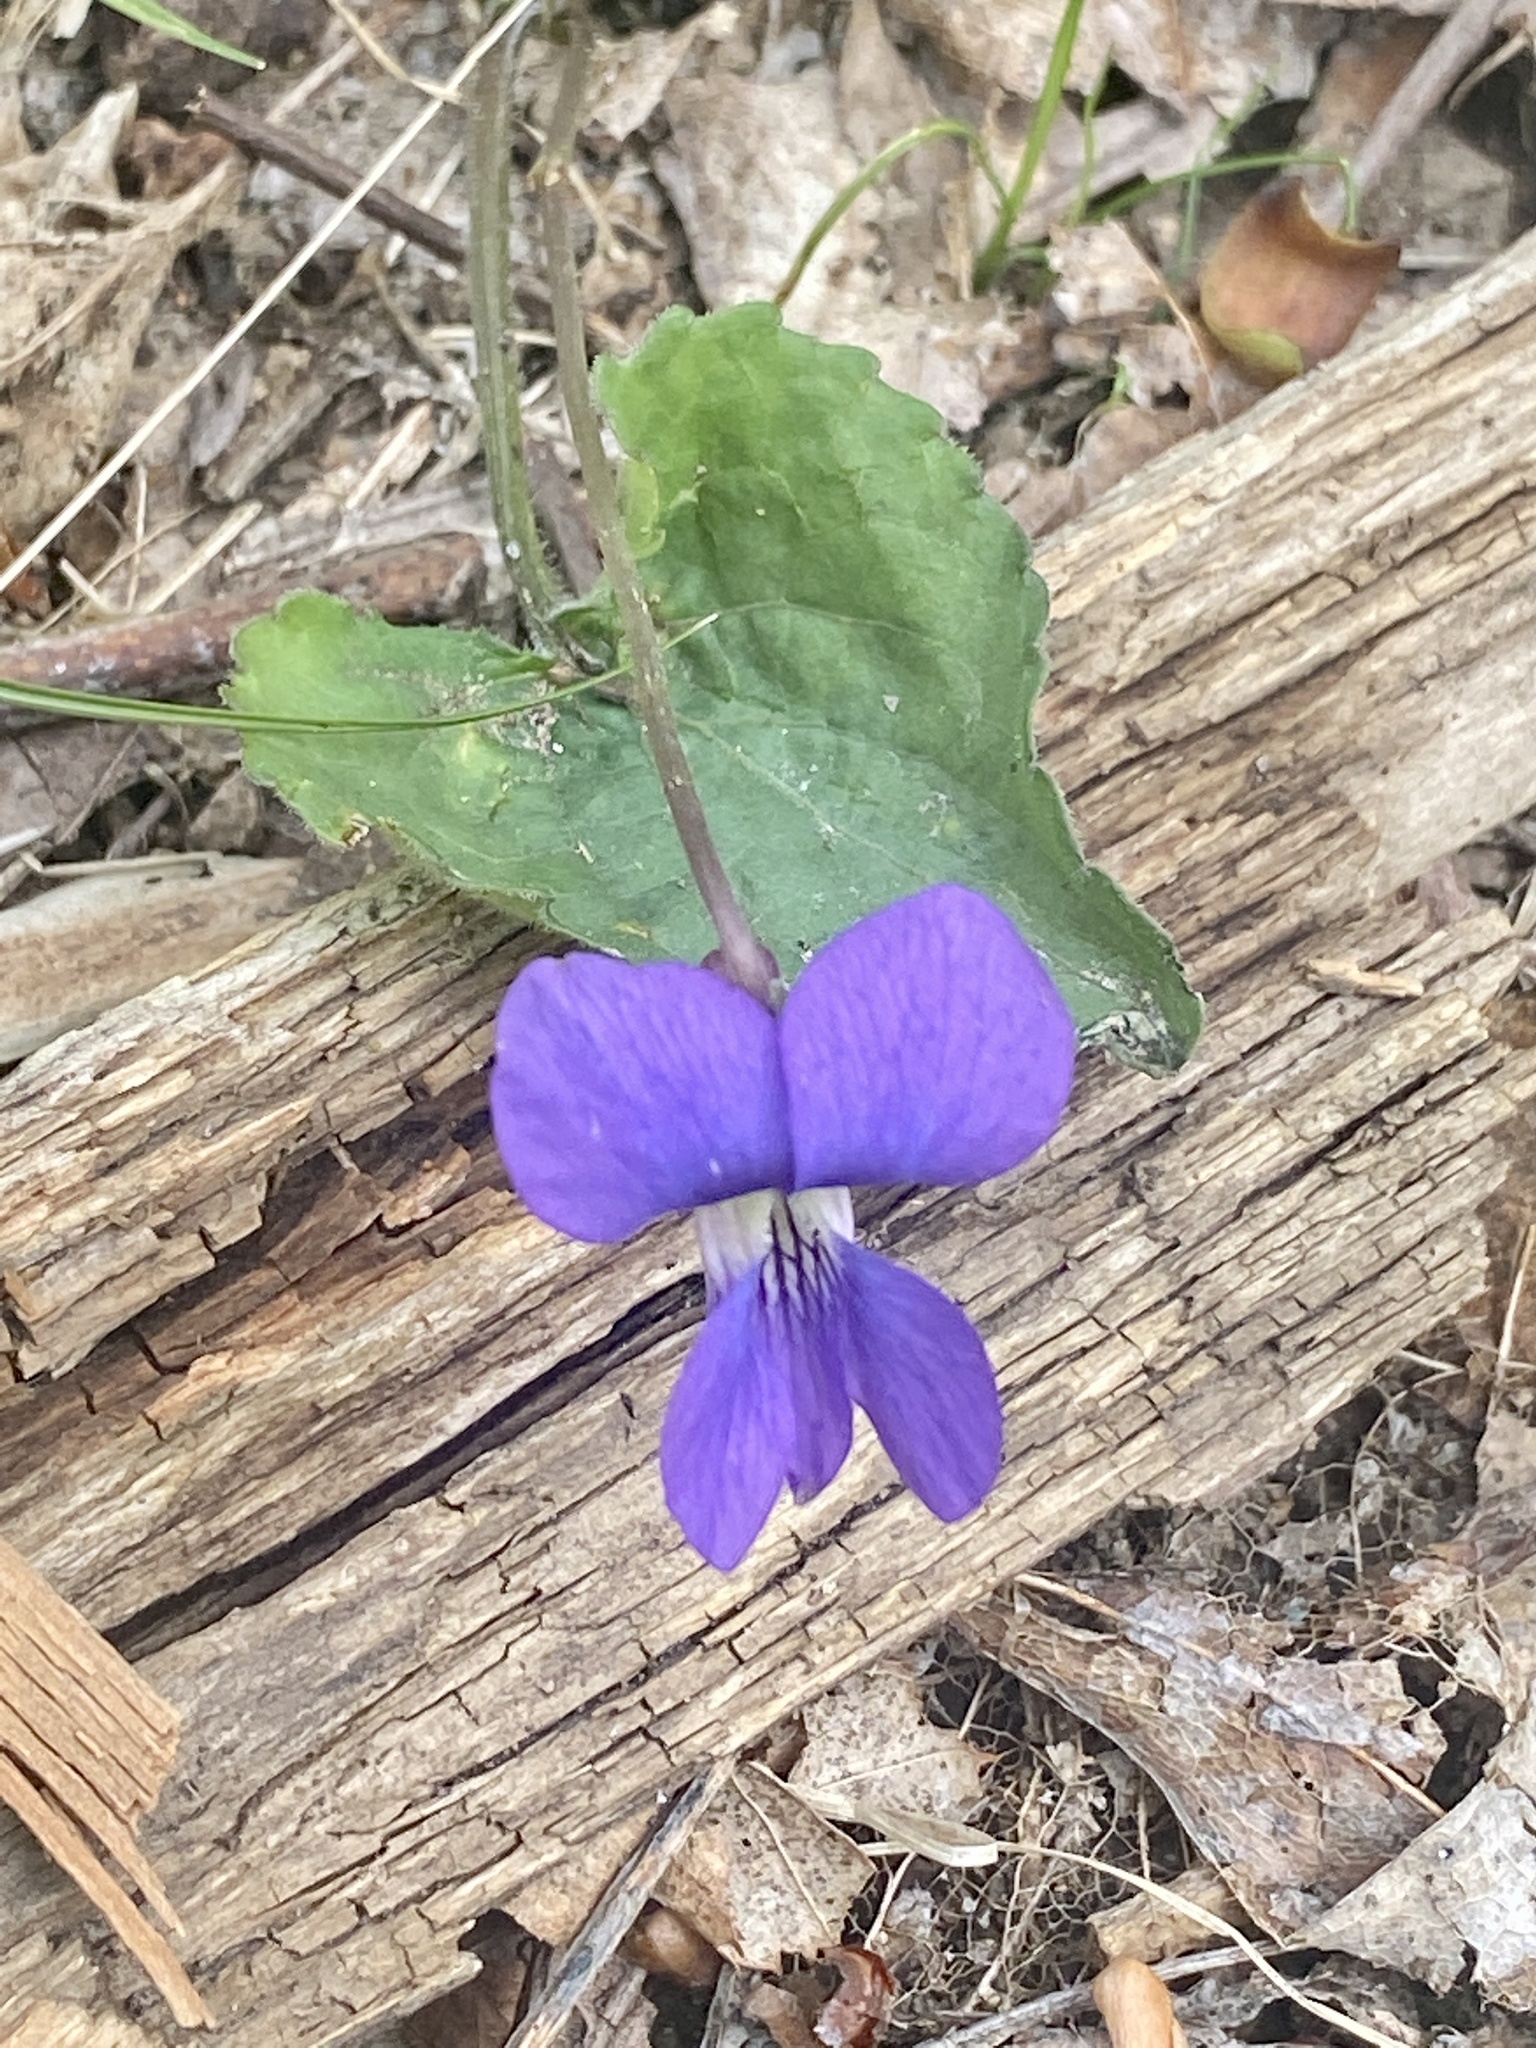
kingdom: Plantae
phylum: Tracheophyta
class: Magnoliopsida
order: Malpighiales
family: Violaceae
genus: Viola
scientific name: Viola sororia
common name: Dooryard violet
